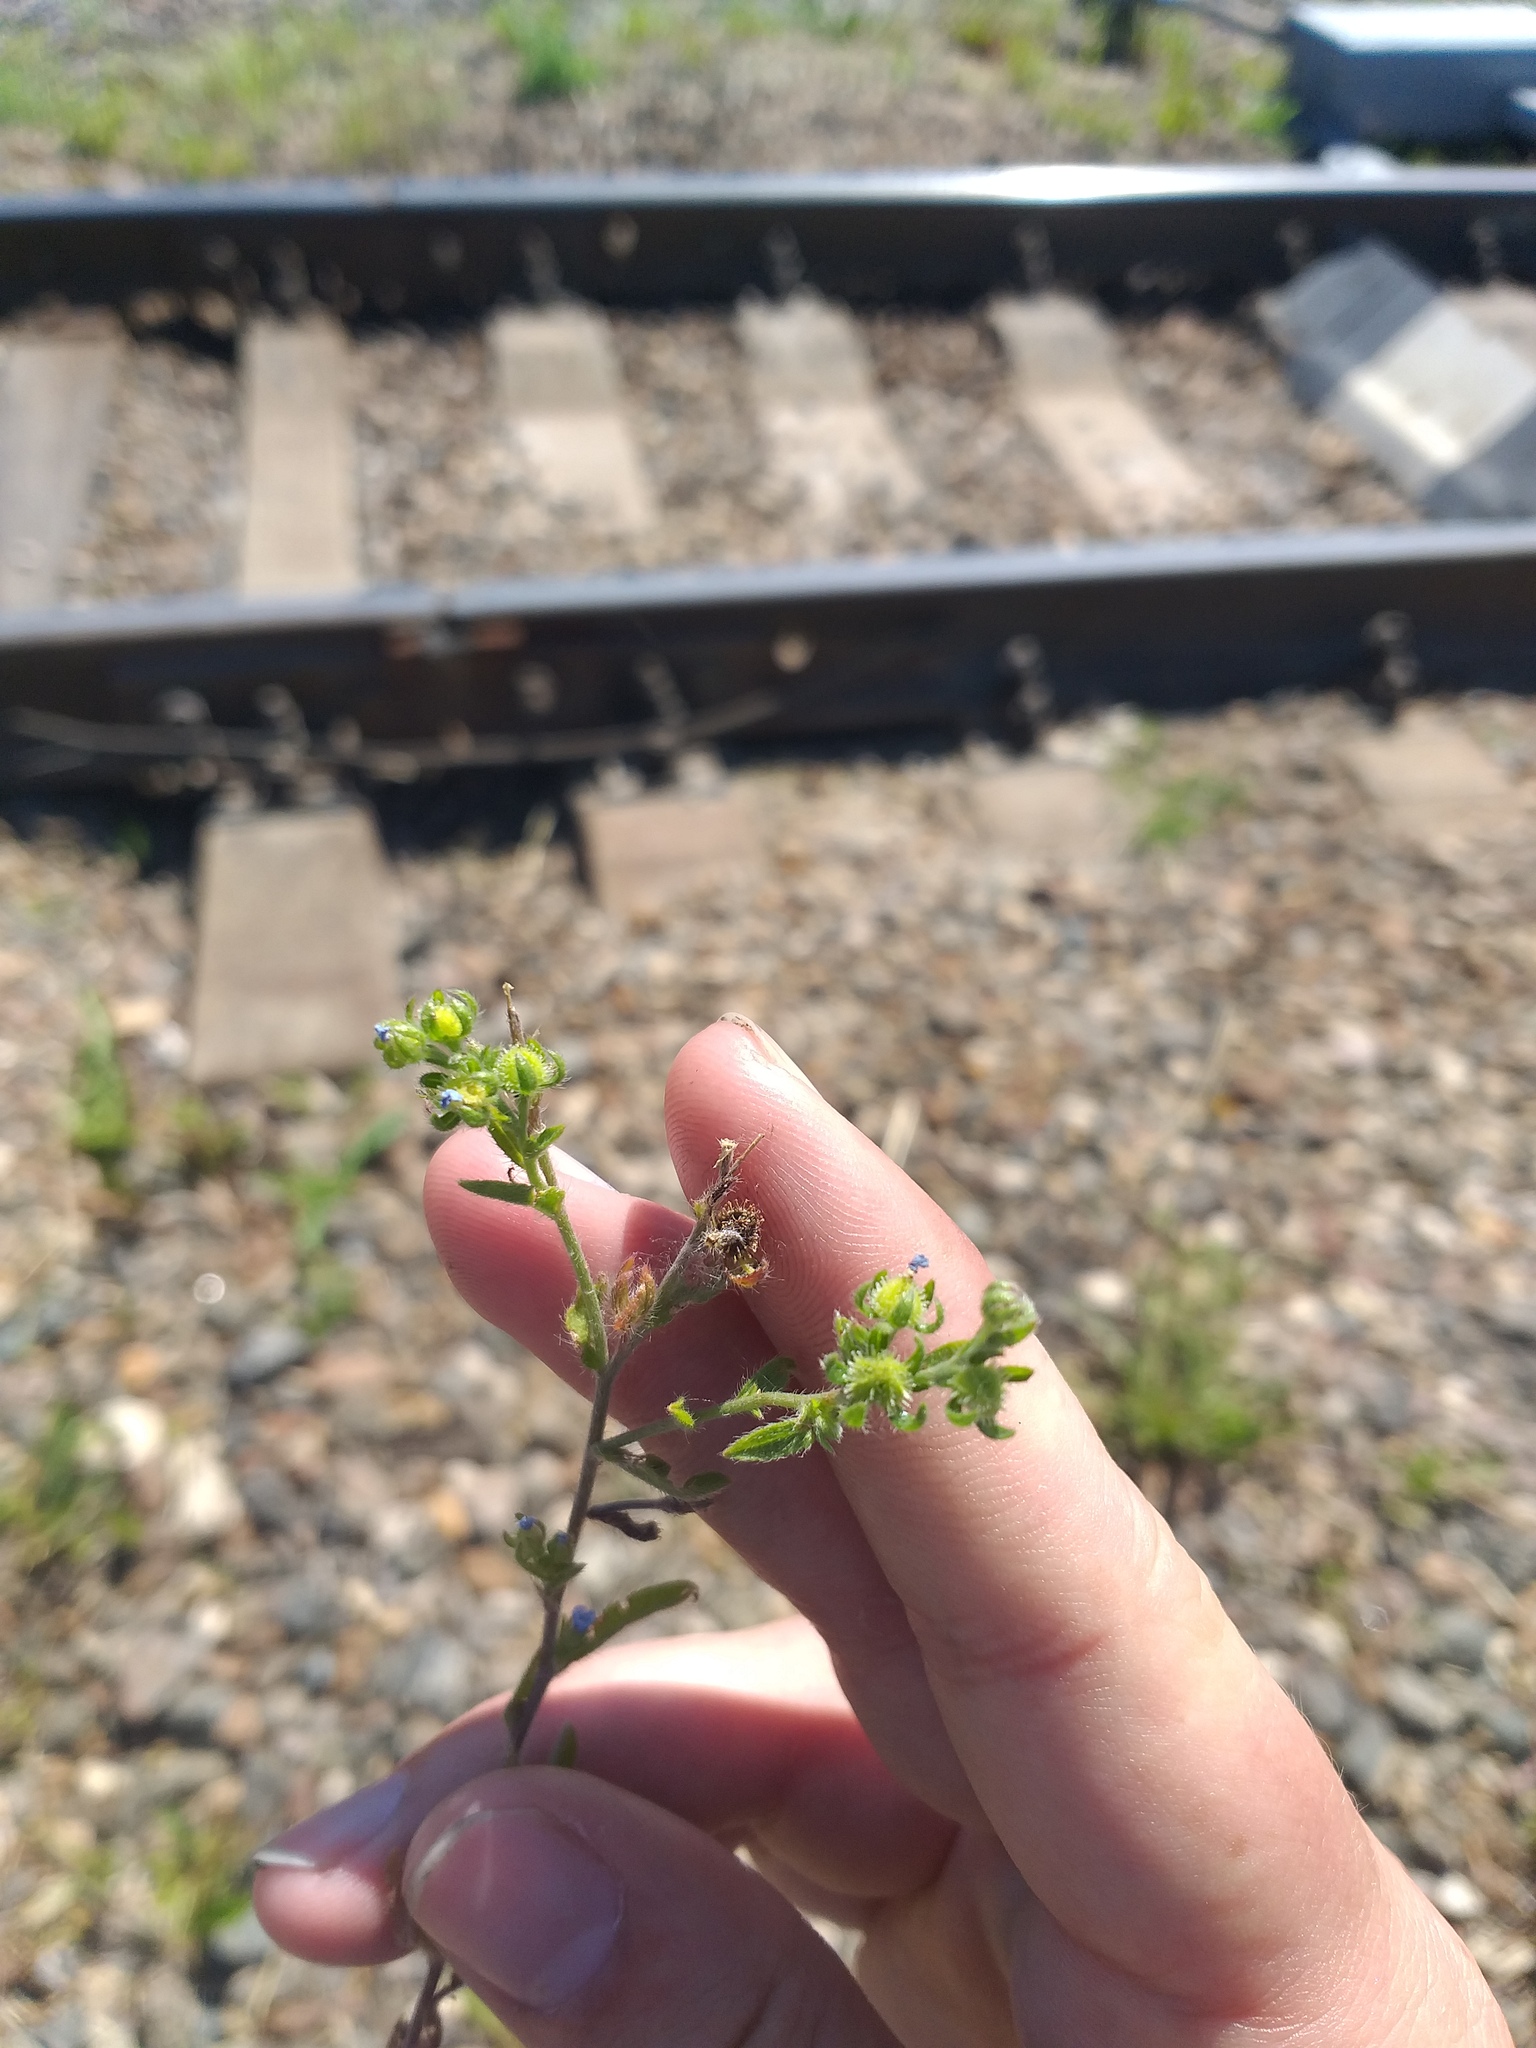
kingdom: Plantae
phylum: Tracheophyta
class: Magnoliopsida
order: Boraginales
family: Boraginaceae
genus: Lappula
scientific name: Lappula squarrosa
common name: European stickseed
